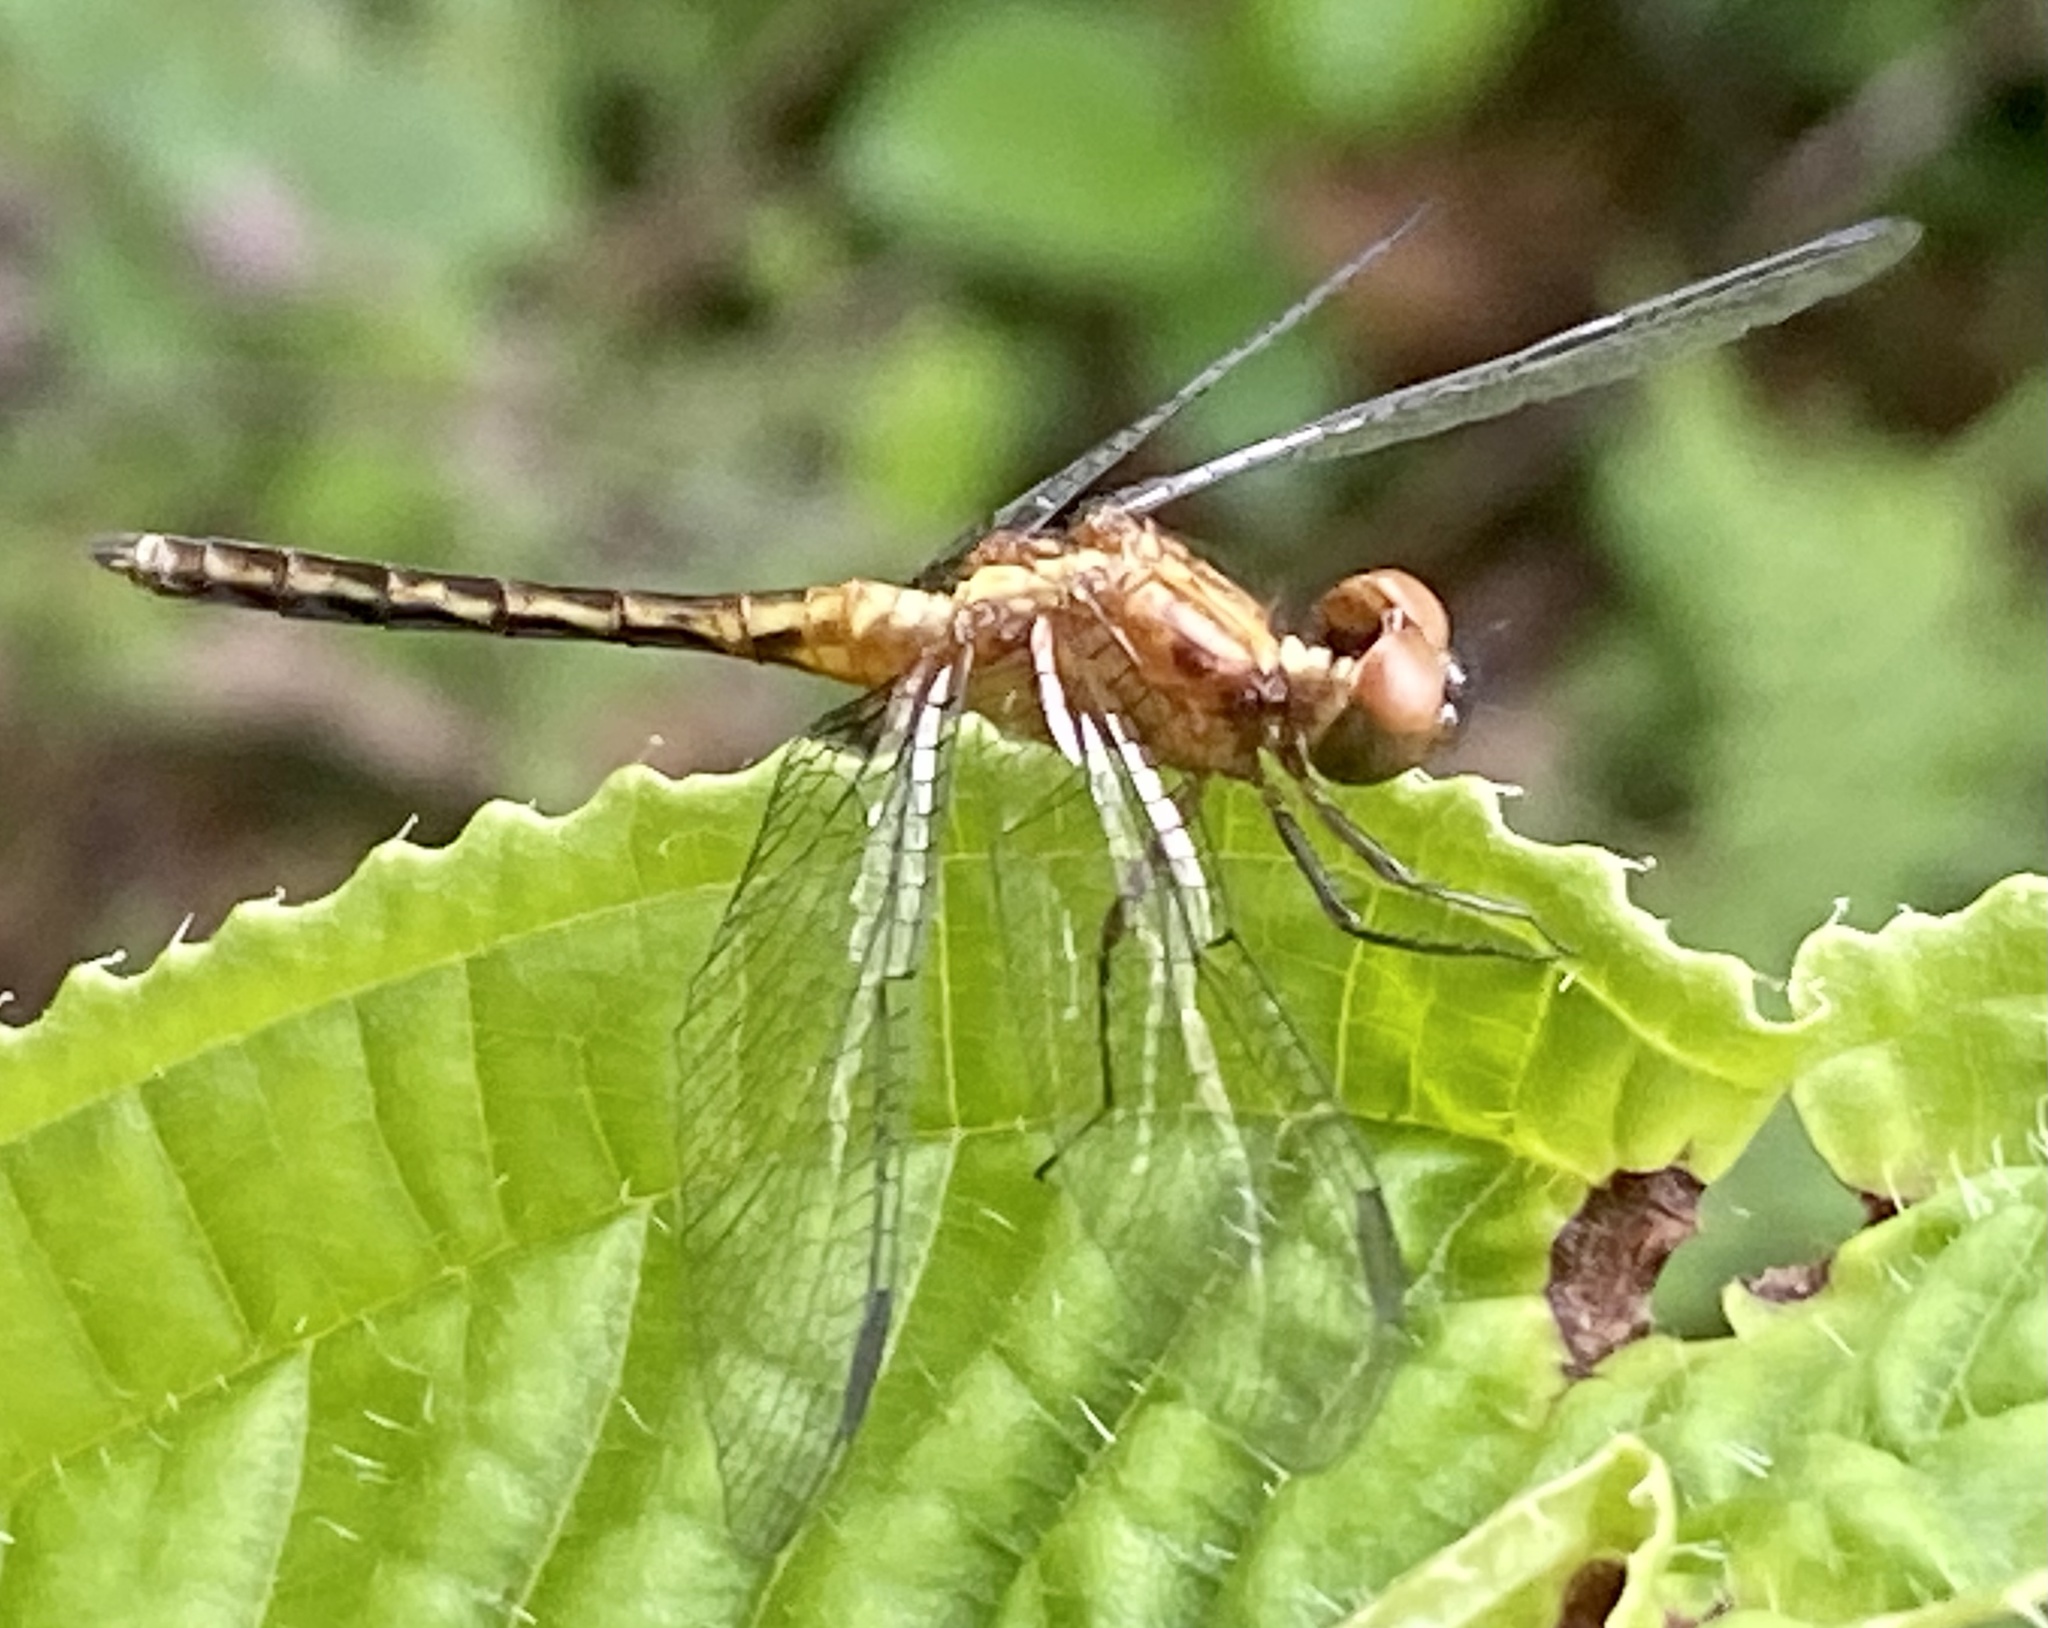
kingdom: Animalia
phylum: Arthropoda
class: Insecta
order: Odonata
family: Libellulidae
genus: Erythrodiplax
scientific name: Erythrodiplax avittata
